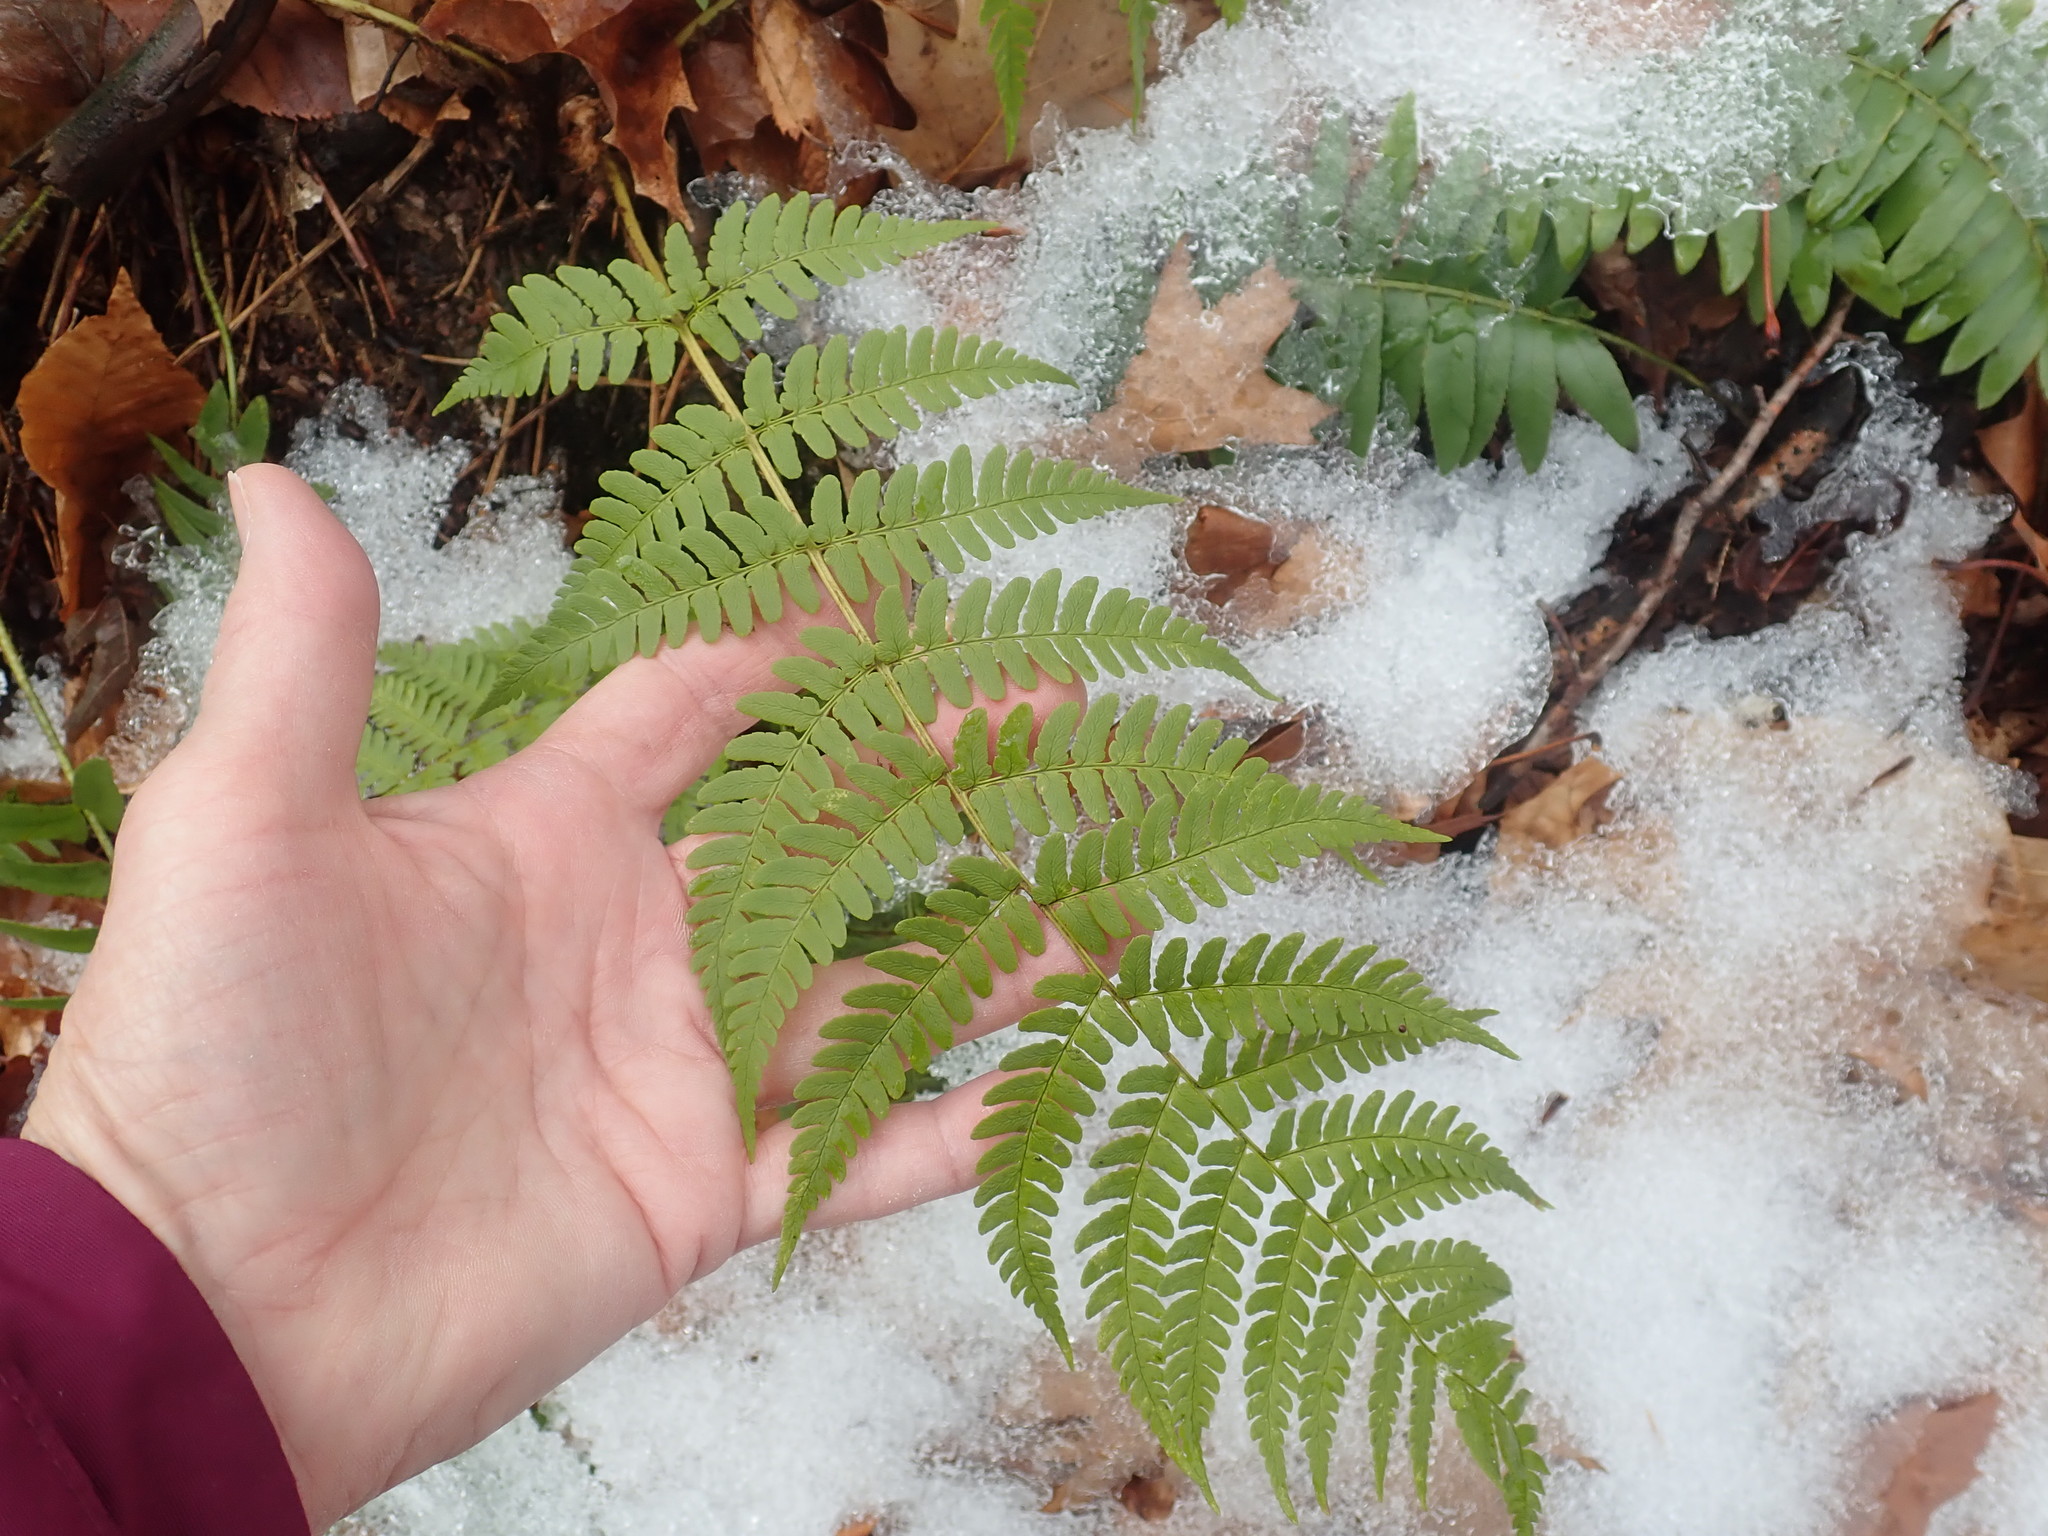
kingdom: Plantae
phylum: Tracheophyta
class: Polypodiopsida
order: Polypodiales
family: Dryopteridaceae
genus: Dryopteris
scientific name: Dryopteris marginalis
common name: Marginal wood fern
